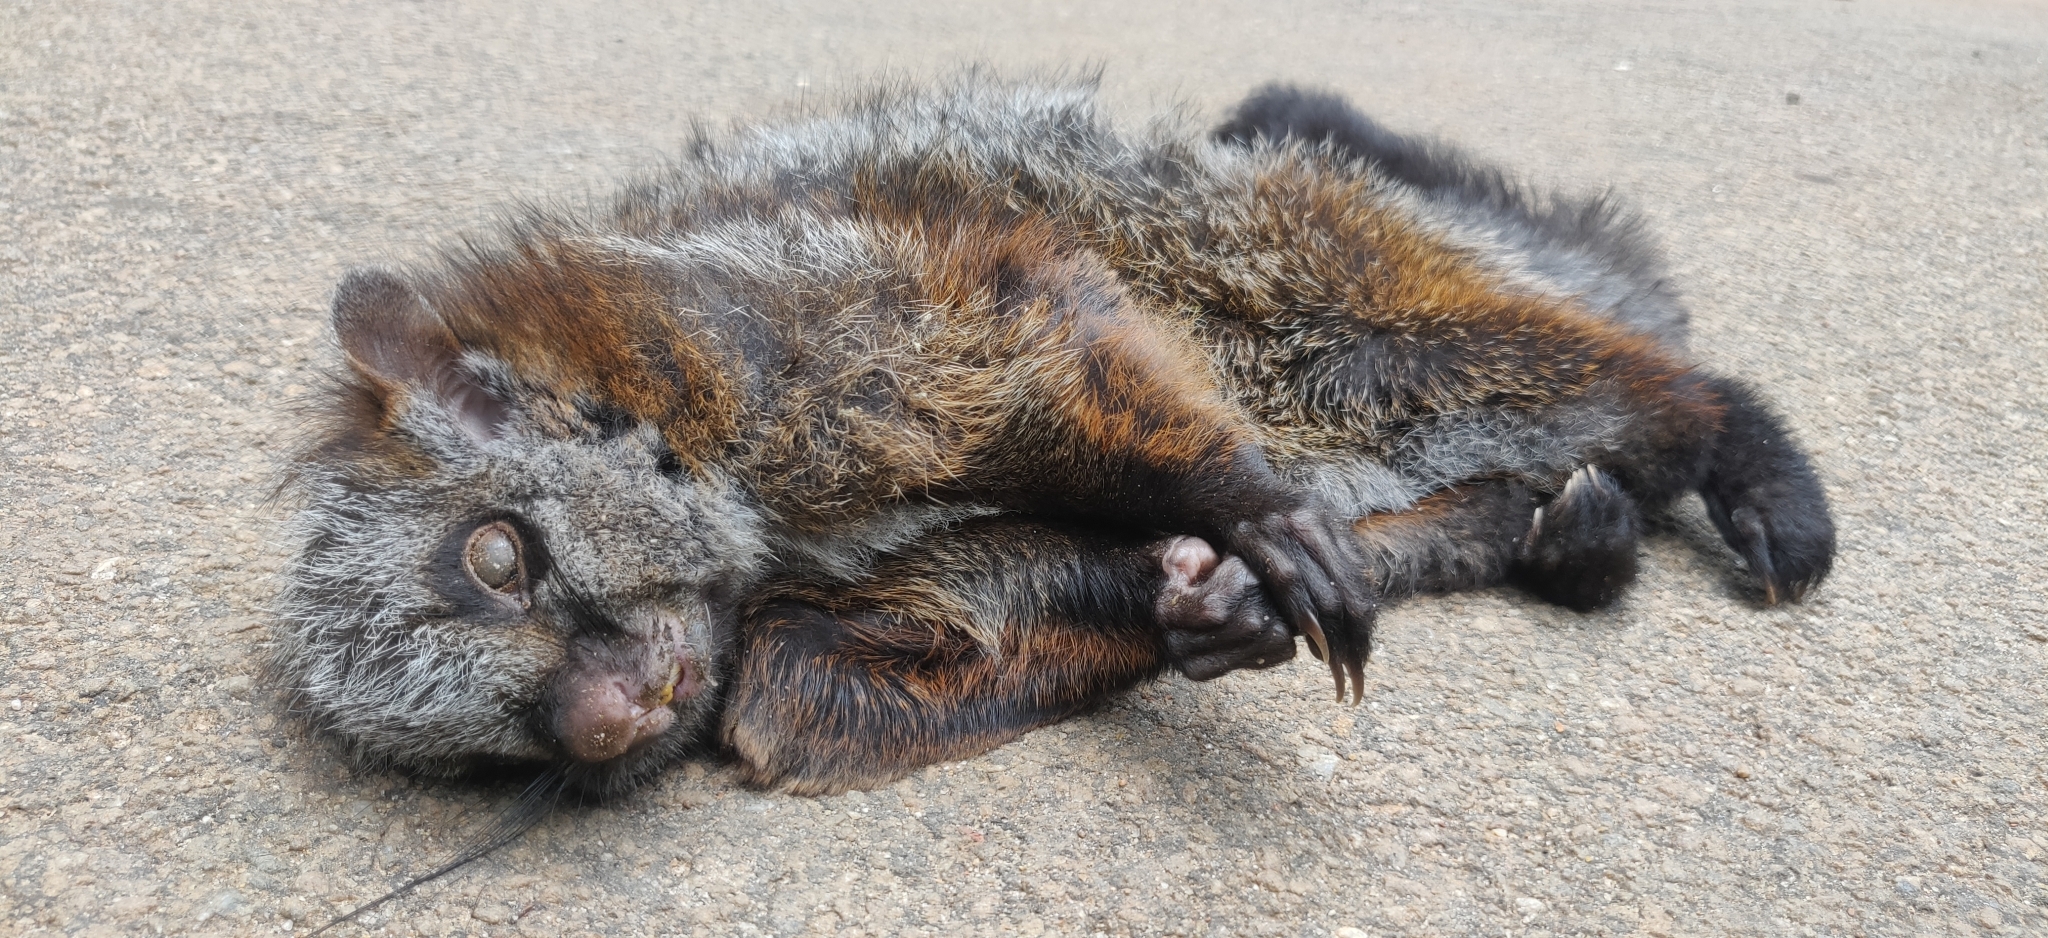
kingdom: Animalia
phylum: Chordata
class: Mammalia
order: Rodentia
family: Sciuridae
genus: Petaurista
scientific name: Petaurista philippensis
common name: Indian giant flying squirrel
